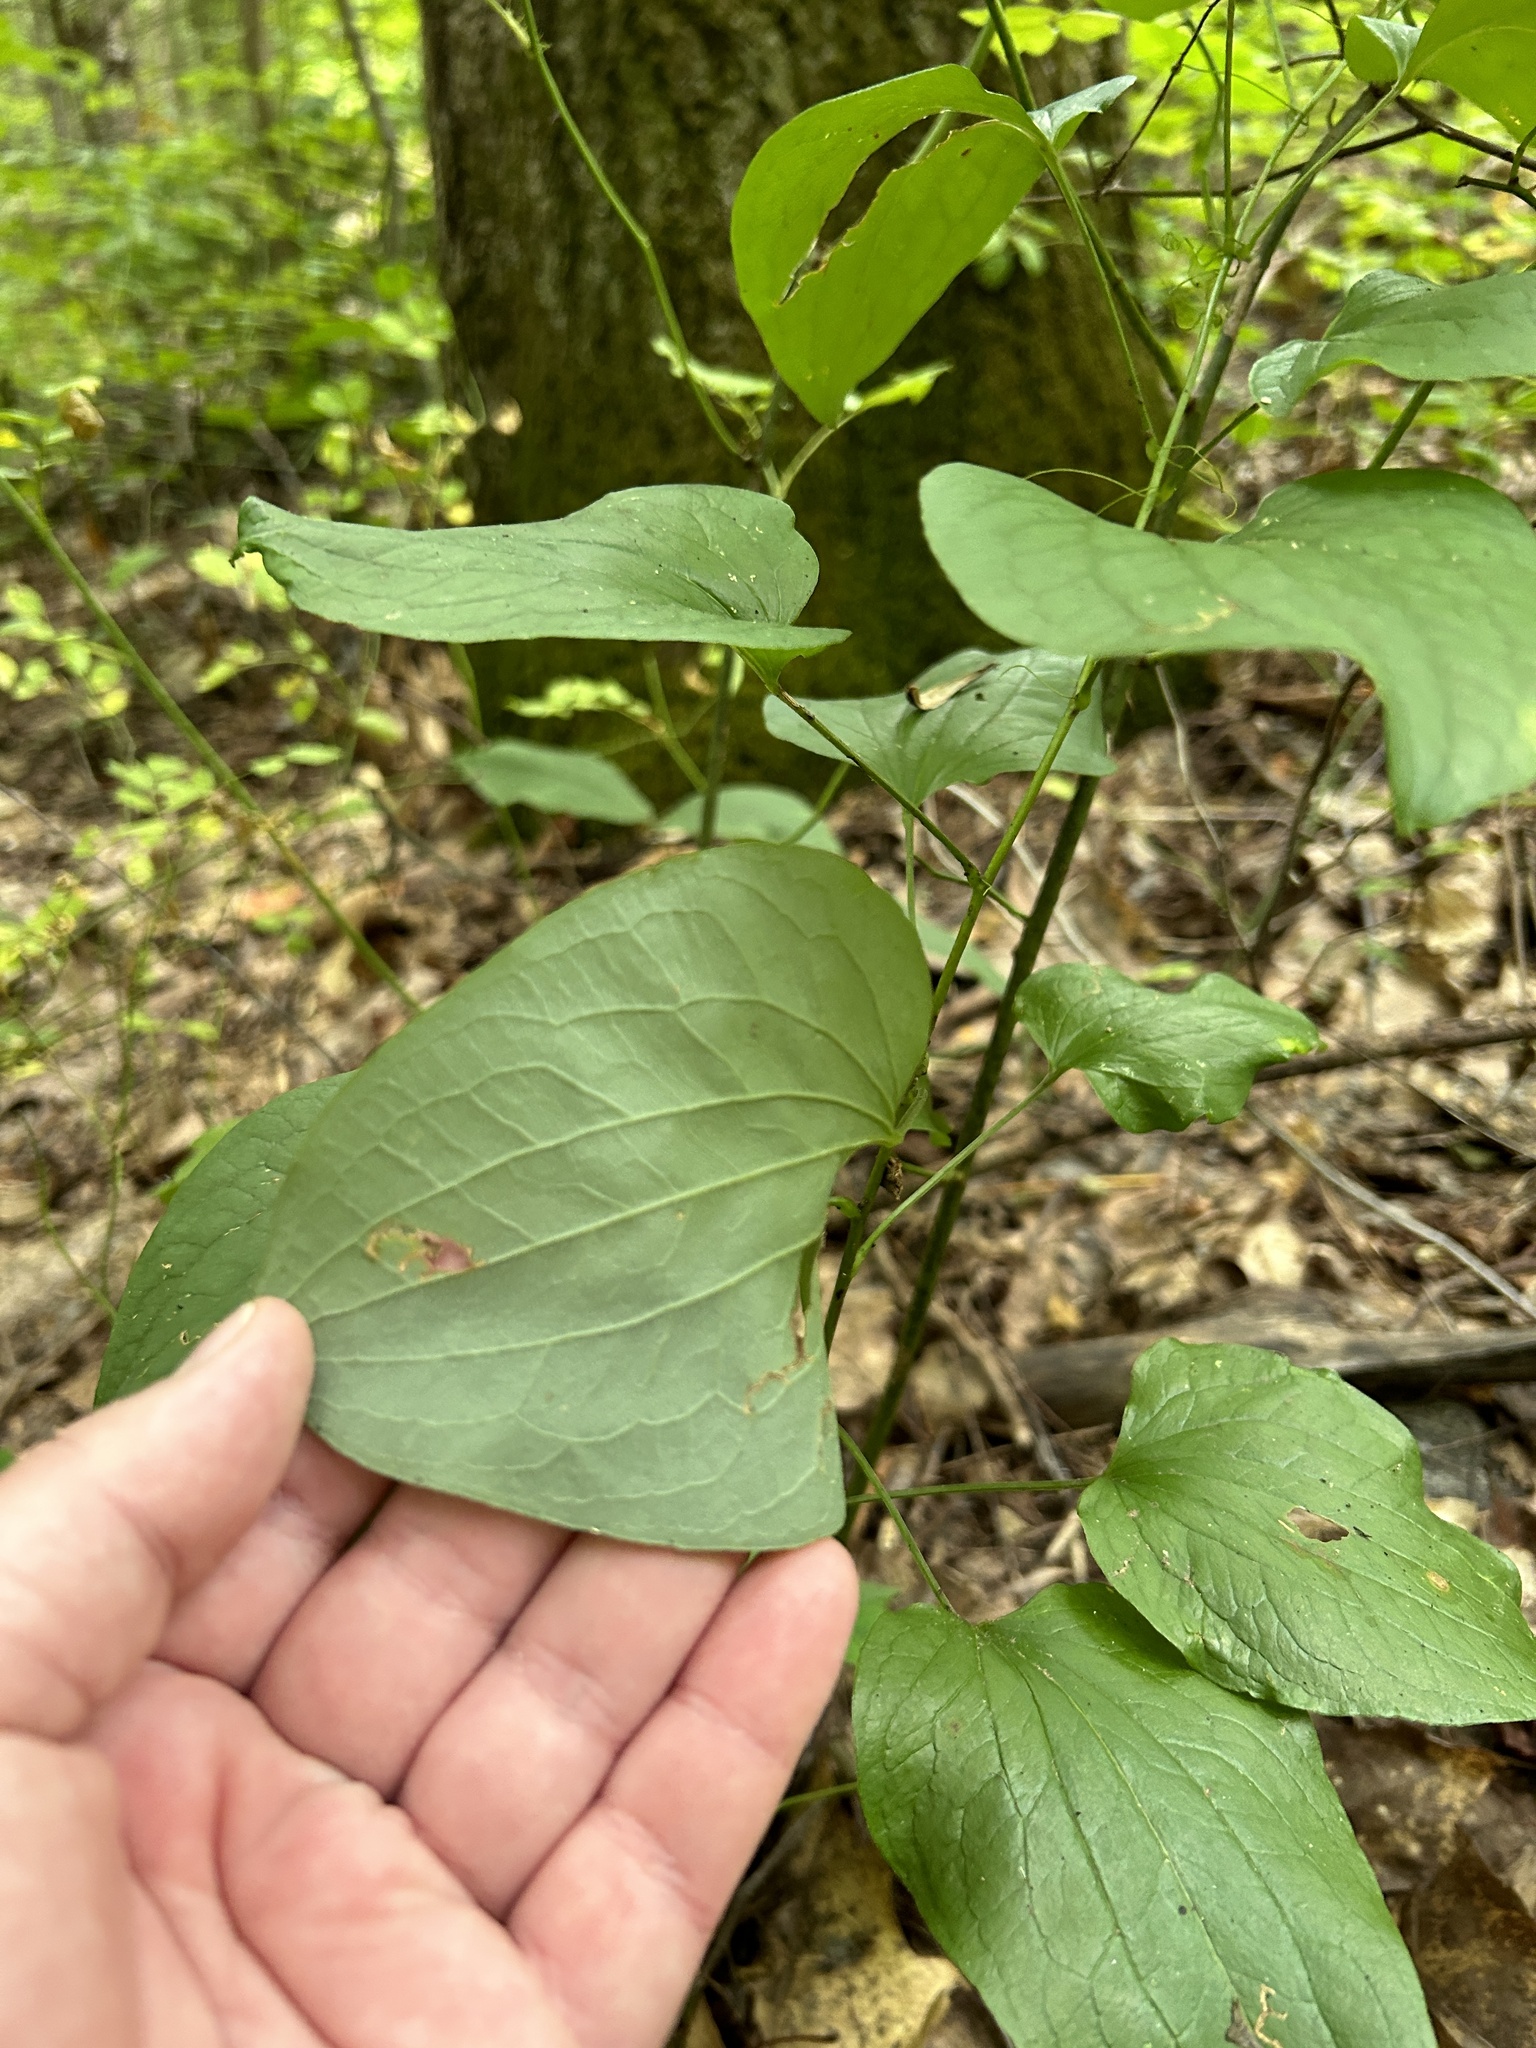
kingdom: Plantae
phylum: Tracheophyta
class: Liliopsida
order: Liliales
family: Smilacaceae
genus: Smilax
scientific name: Smilax herbacea
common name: Jacob's-ladder
